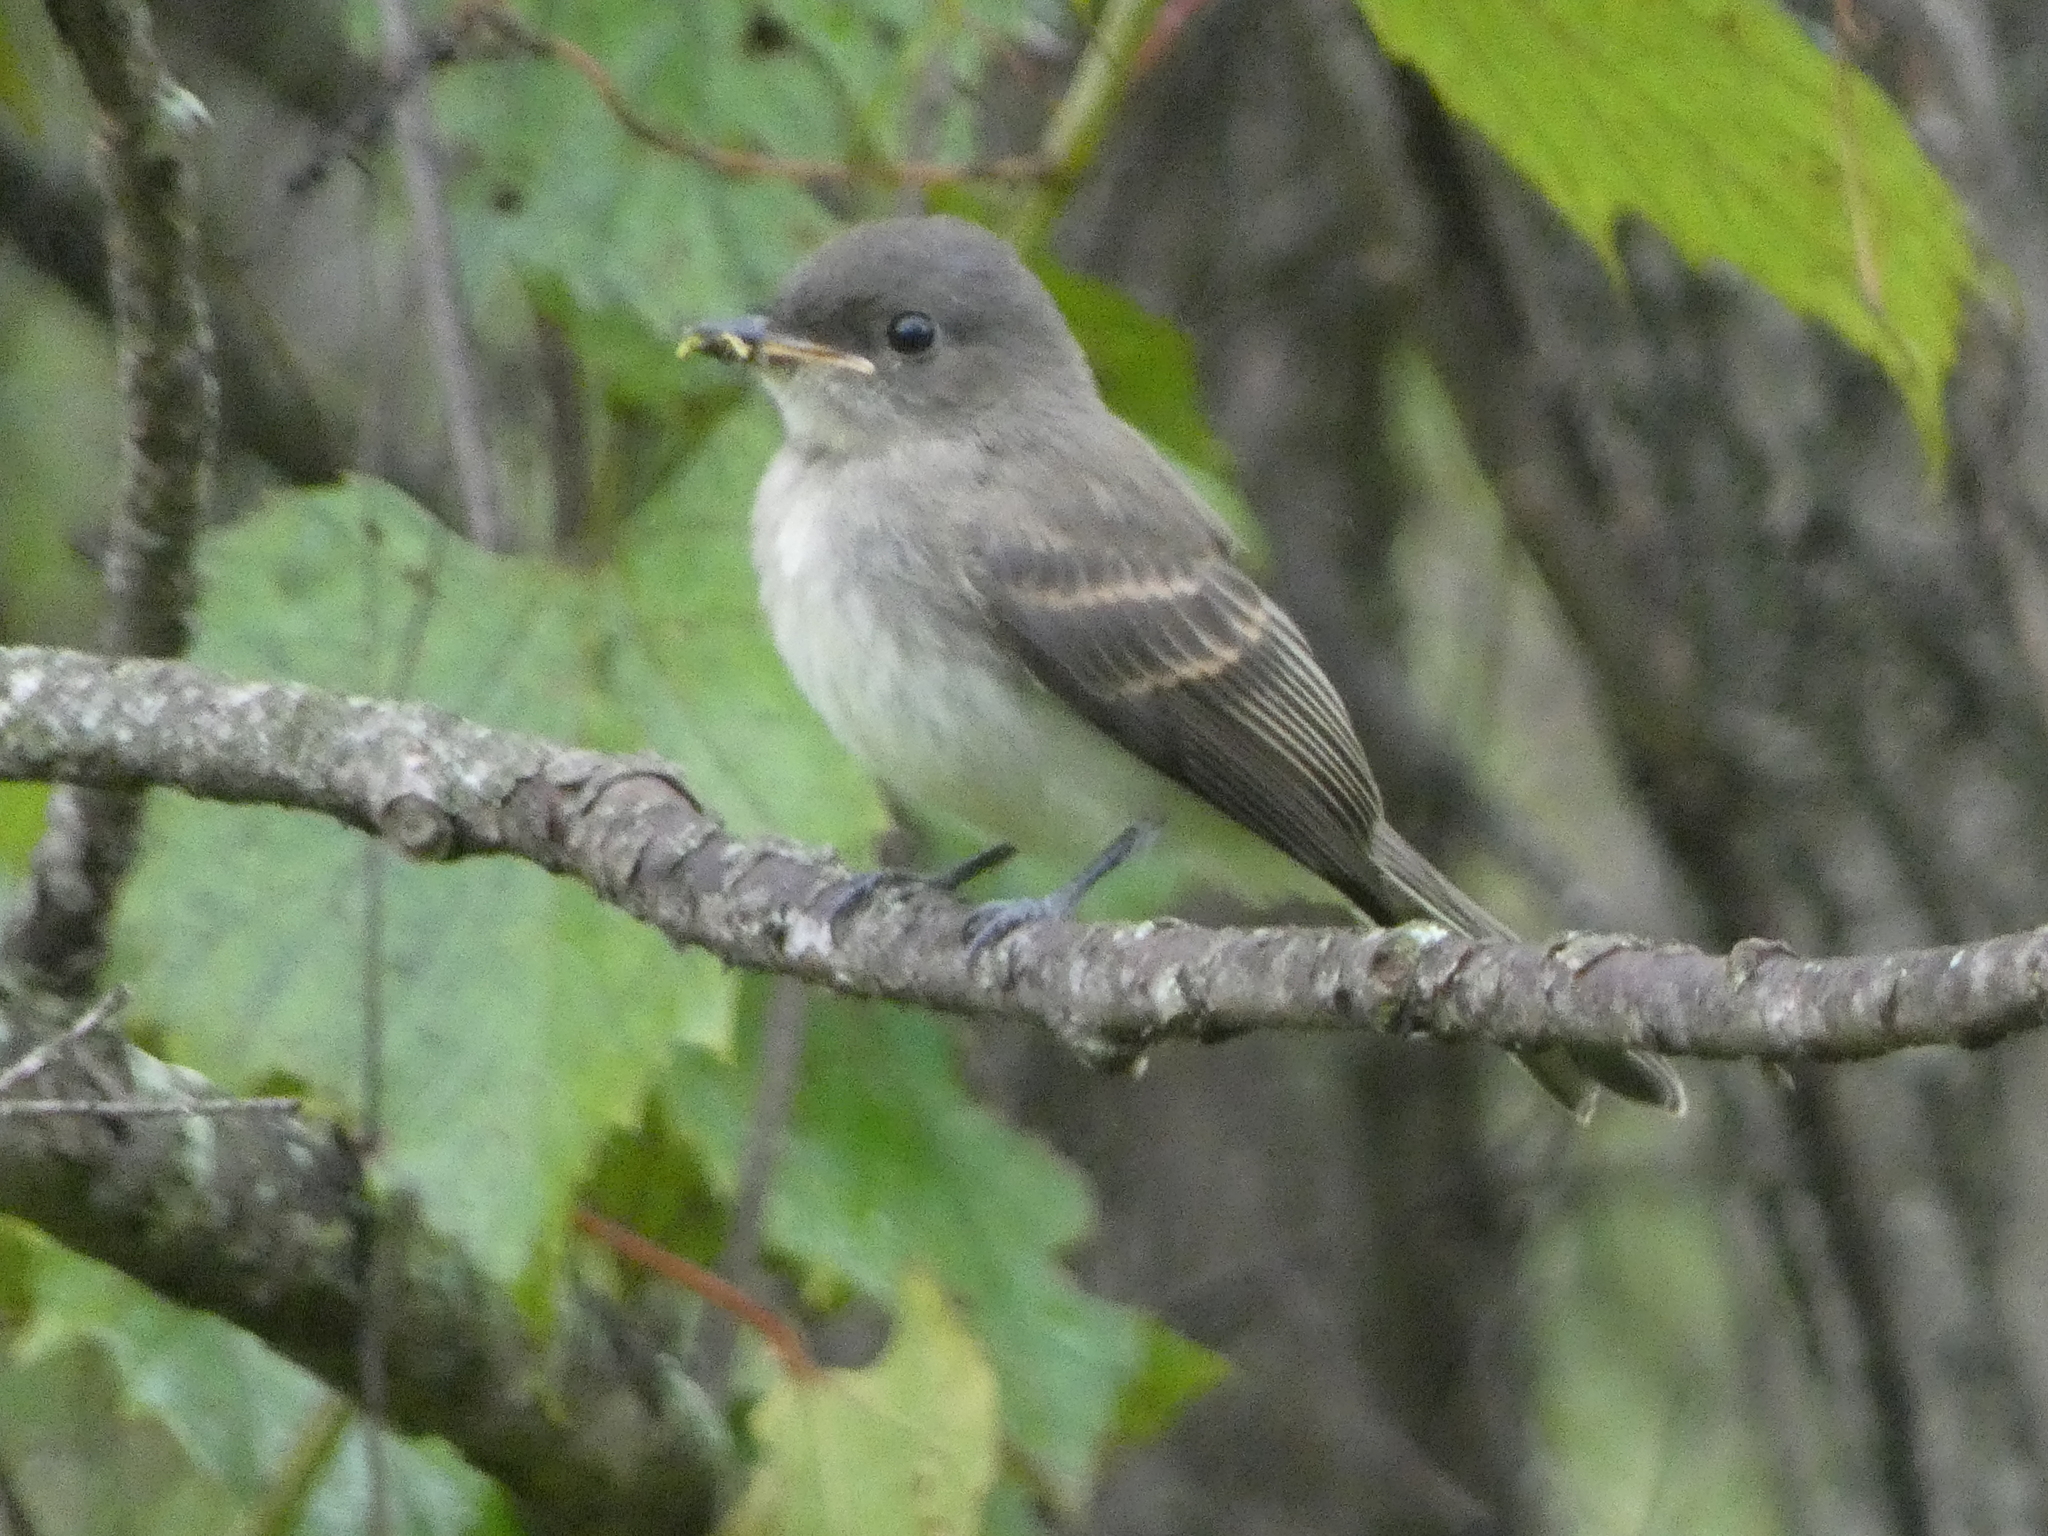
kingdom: Animalia
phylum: Chordata
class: Aves
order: Passeriformes
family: Tyrannidae
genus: Sayornis
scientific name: Sayornis phoebe
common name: Eastern phoebe
